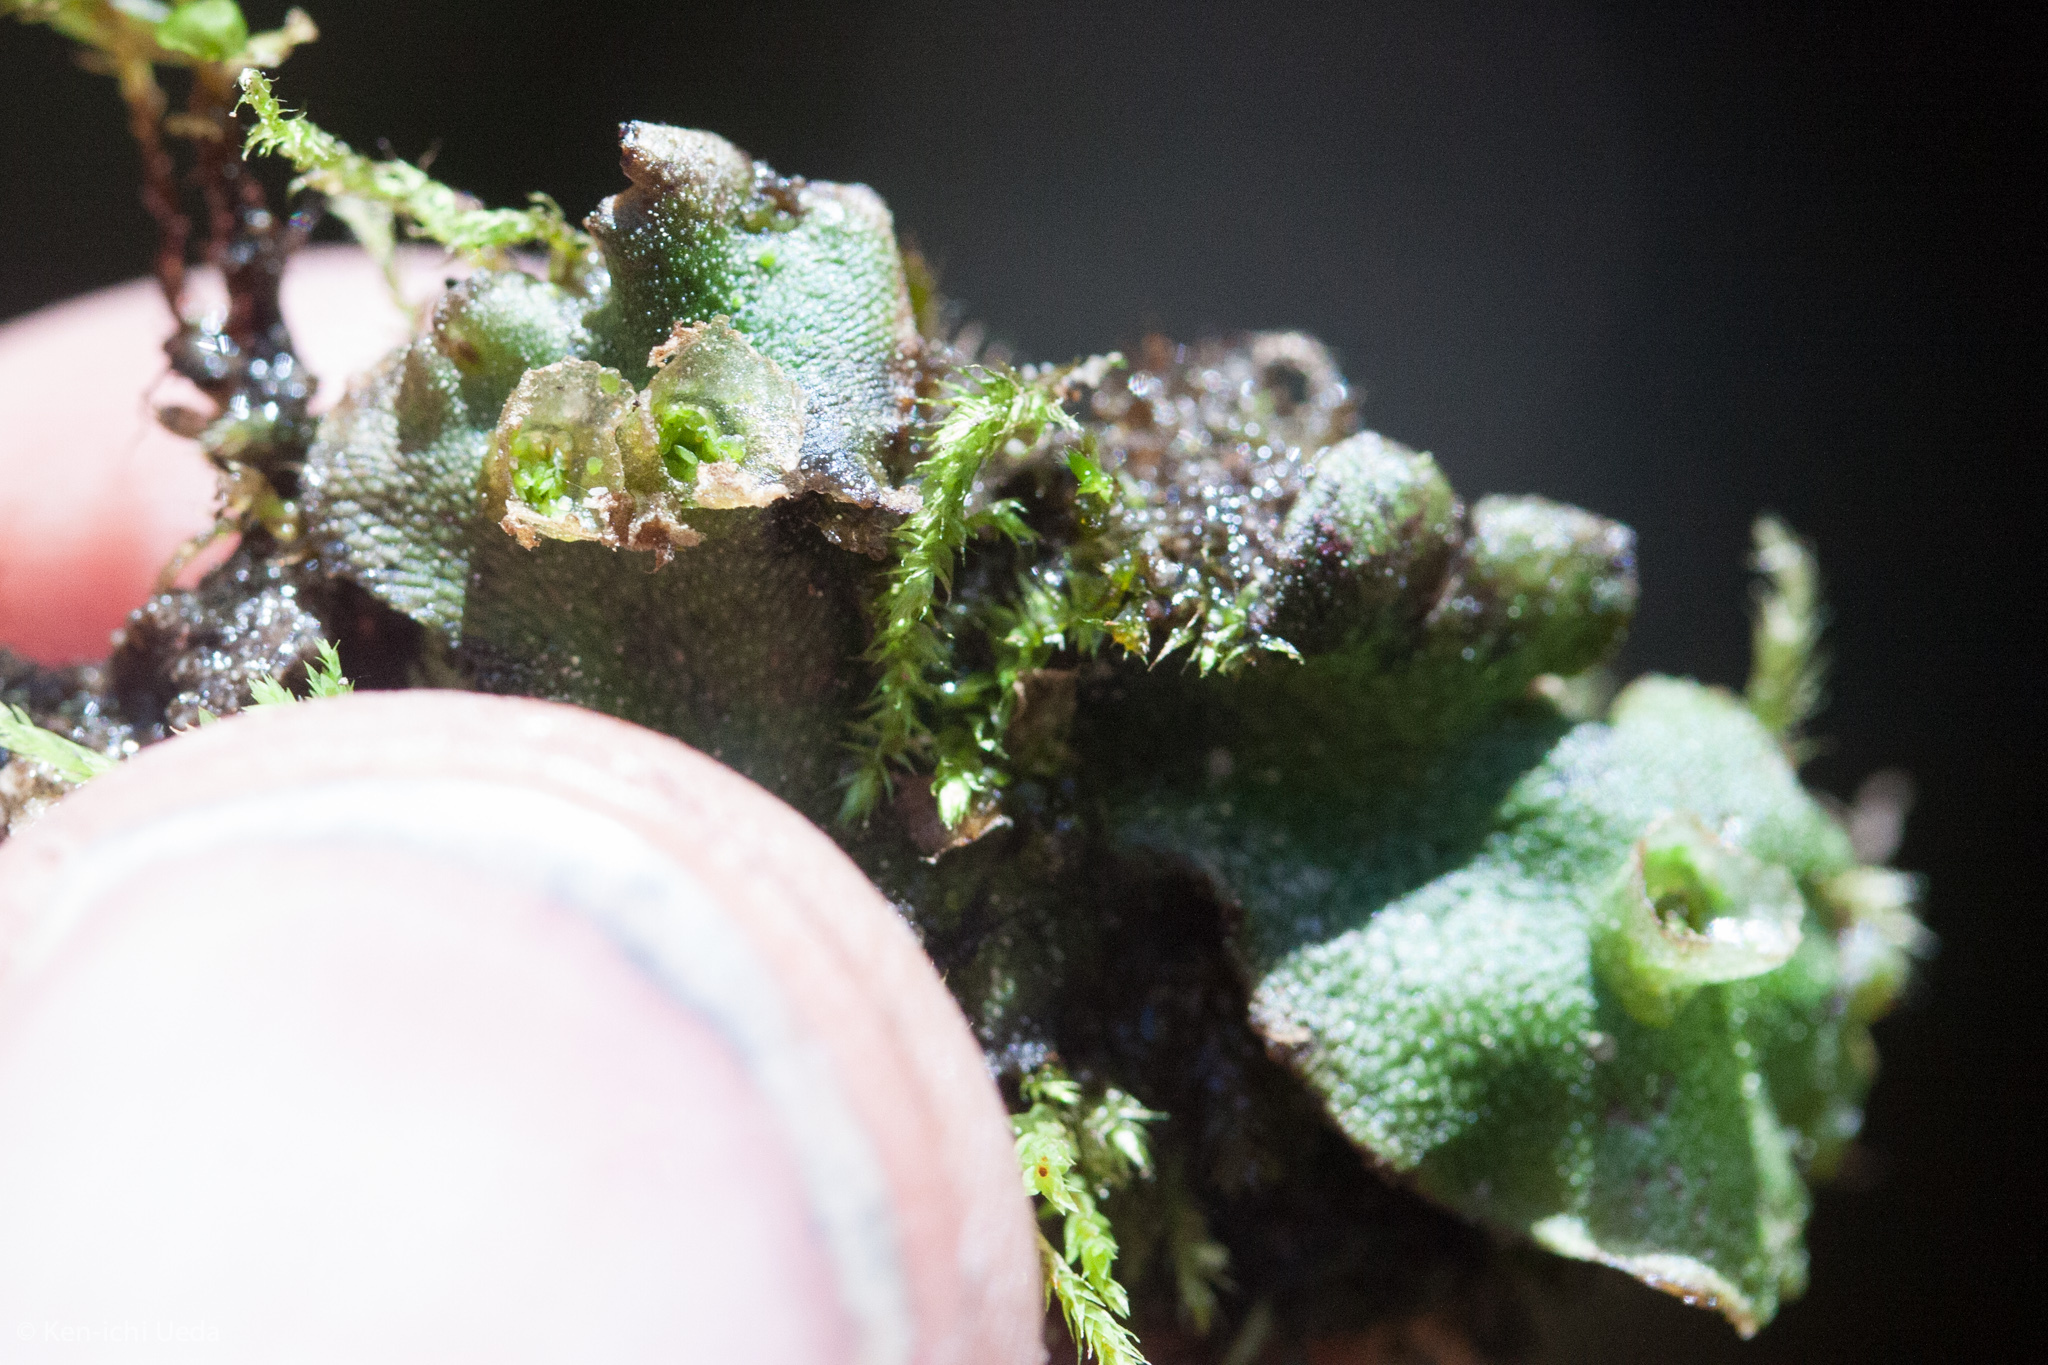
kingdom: Plantae
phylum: Marchantiophyta
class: Marchantiopsida
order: Marchantiales
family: Marchantiaceae
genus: Marchantia
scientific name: Marchantia polymorpha
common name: Common liverwort
